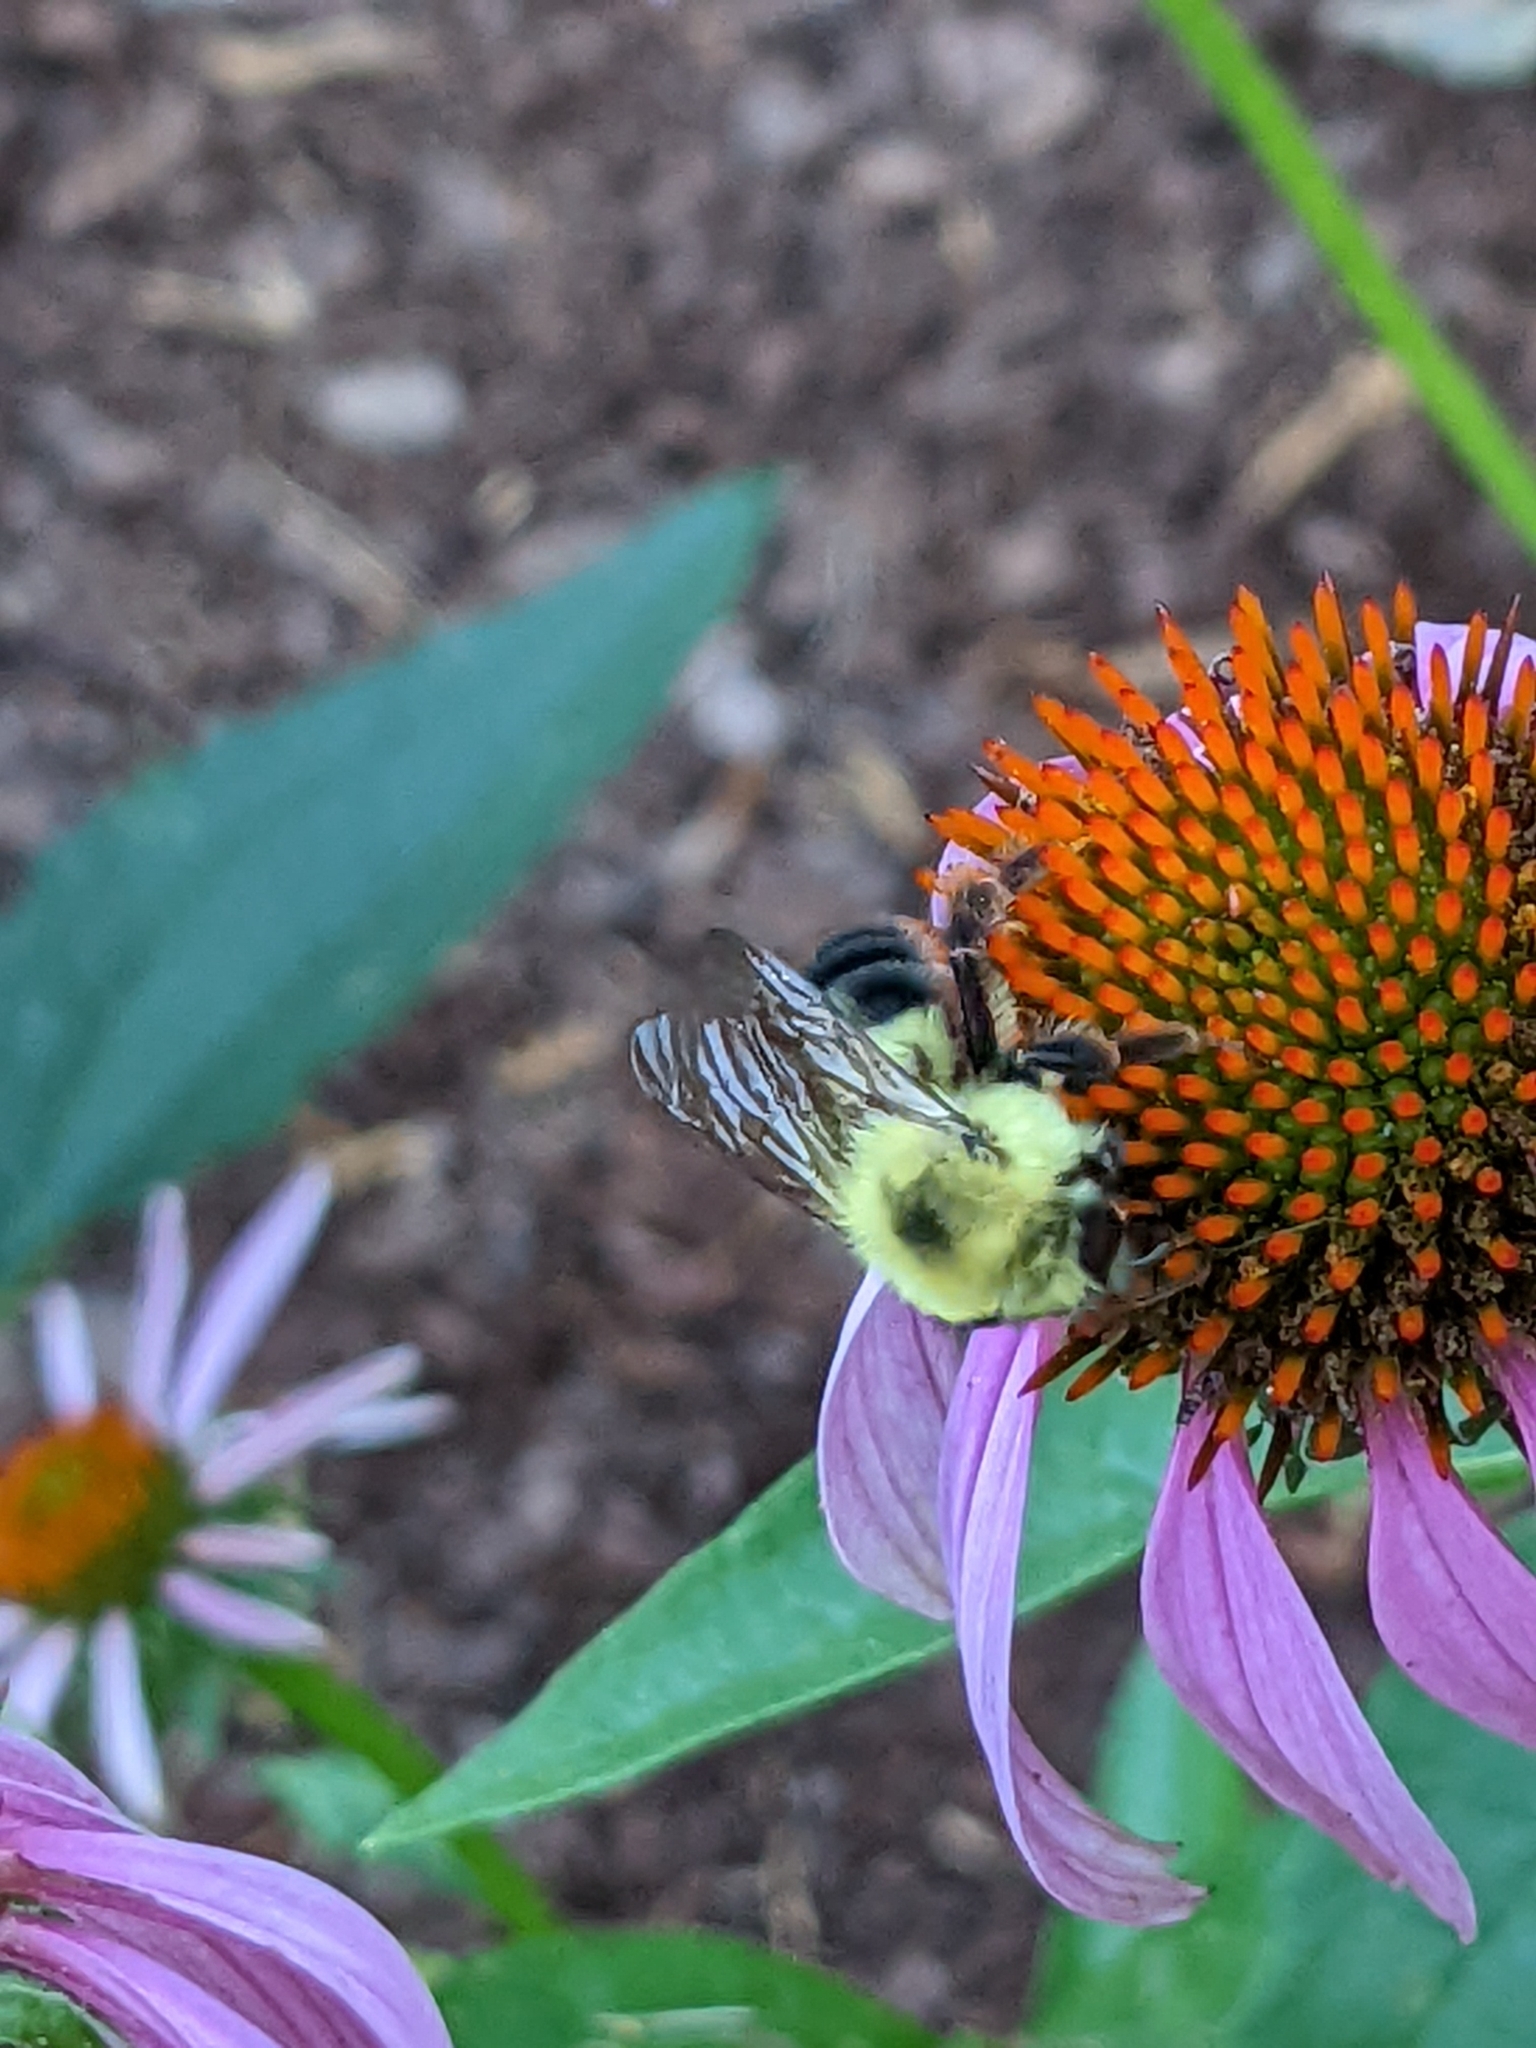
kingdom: Animalia
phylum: Arthropoda
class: Insecta
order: Hymenoptera
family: Apidae
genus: Bombus
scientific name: Bombus bimaculatus
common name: Two-spotted bumble bee
